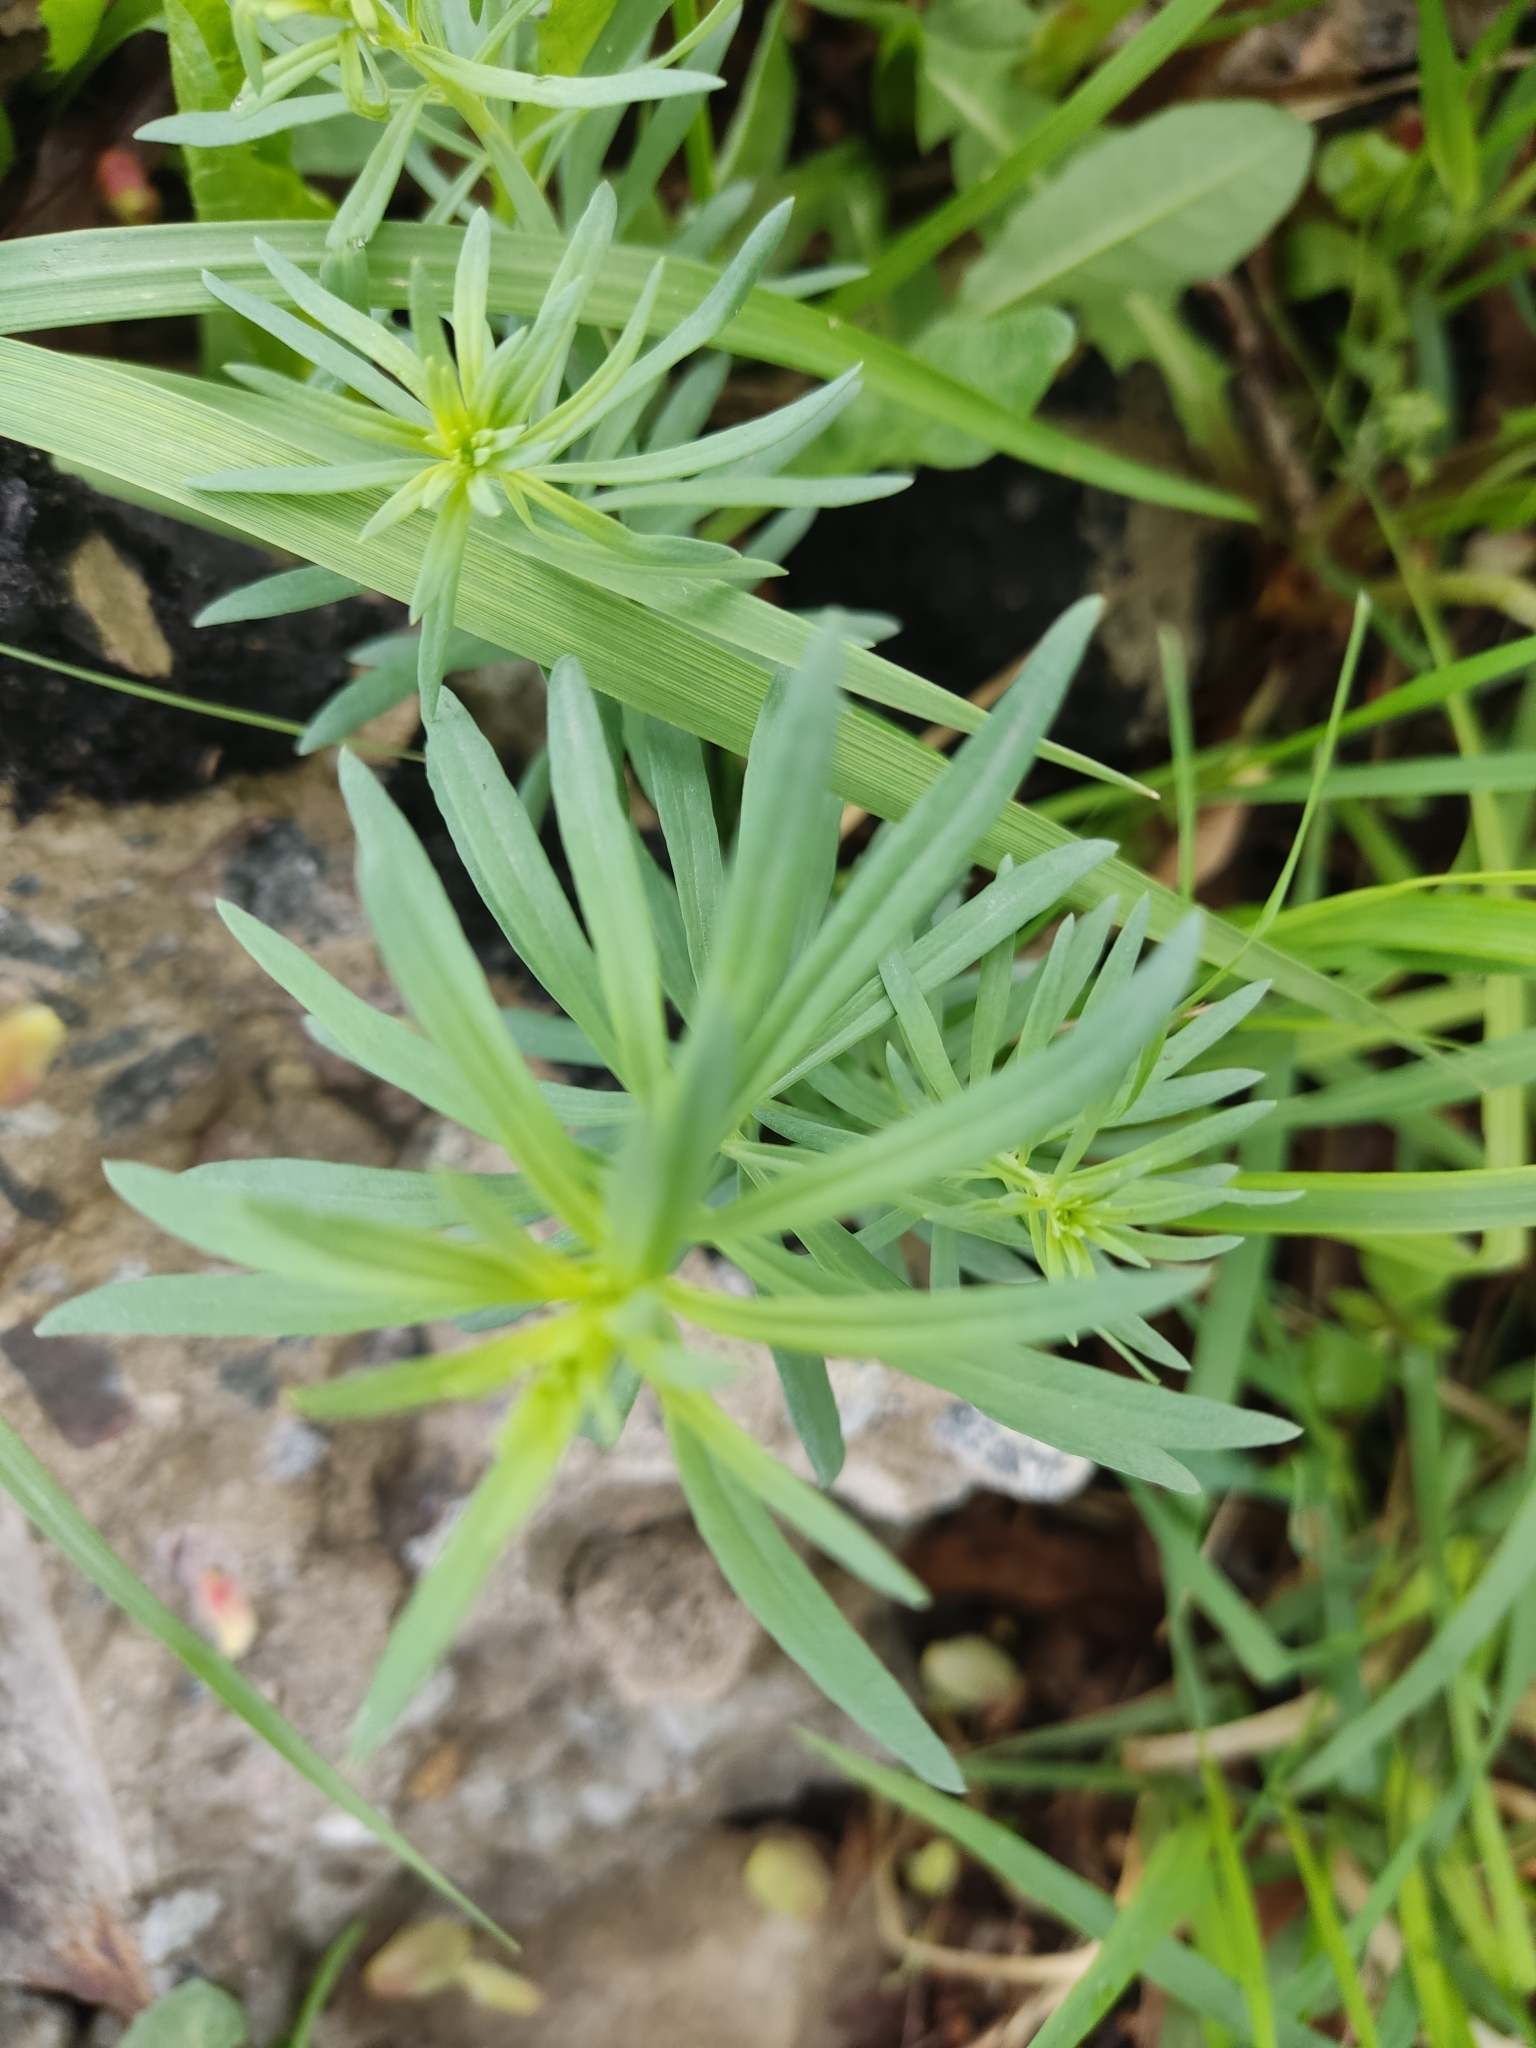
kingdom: Plantae
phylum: Tracheophyta
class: Magnoliopsida
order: Lamiales
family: Plantaginaceae
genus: Linaria
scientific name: Linaria vulgaris
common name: Butter and eggs
